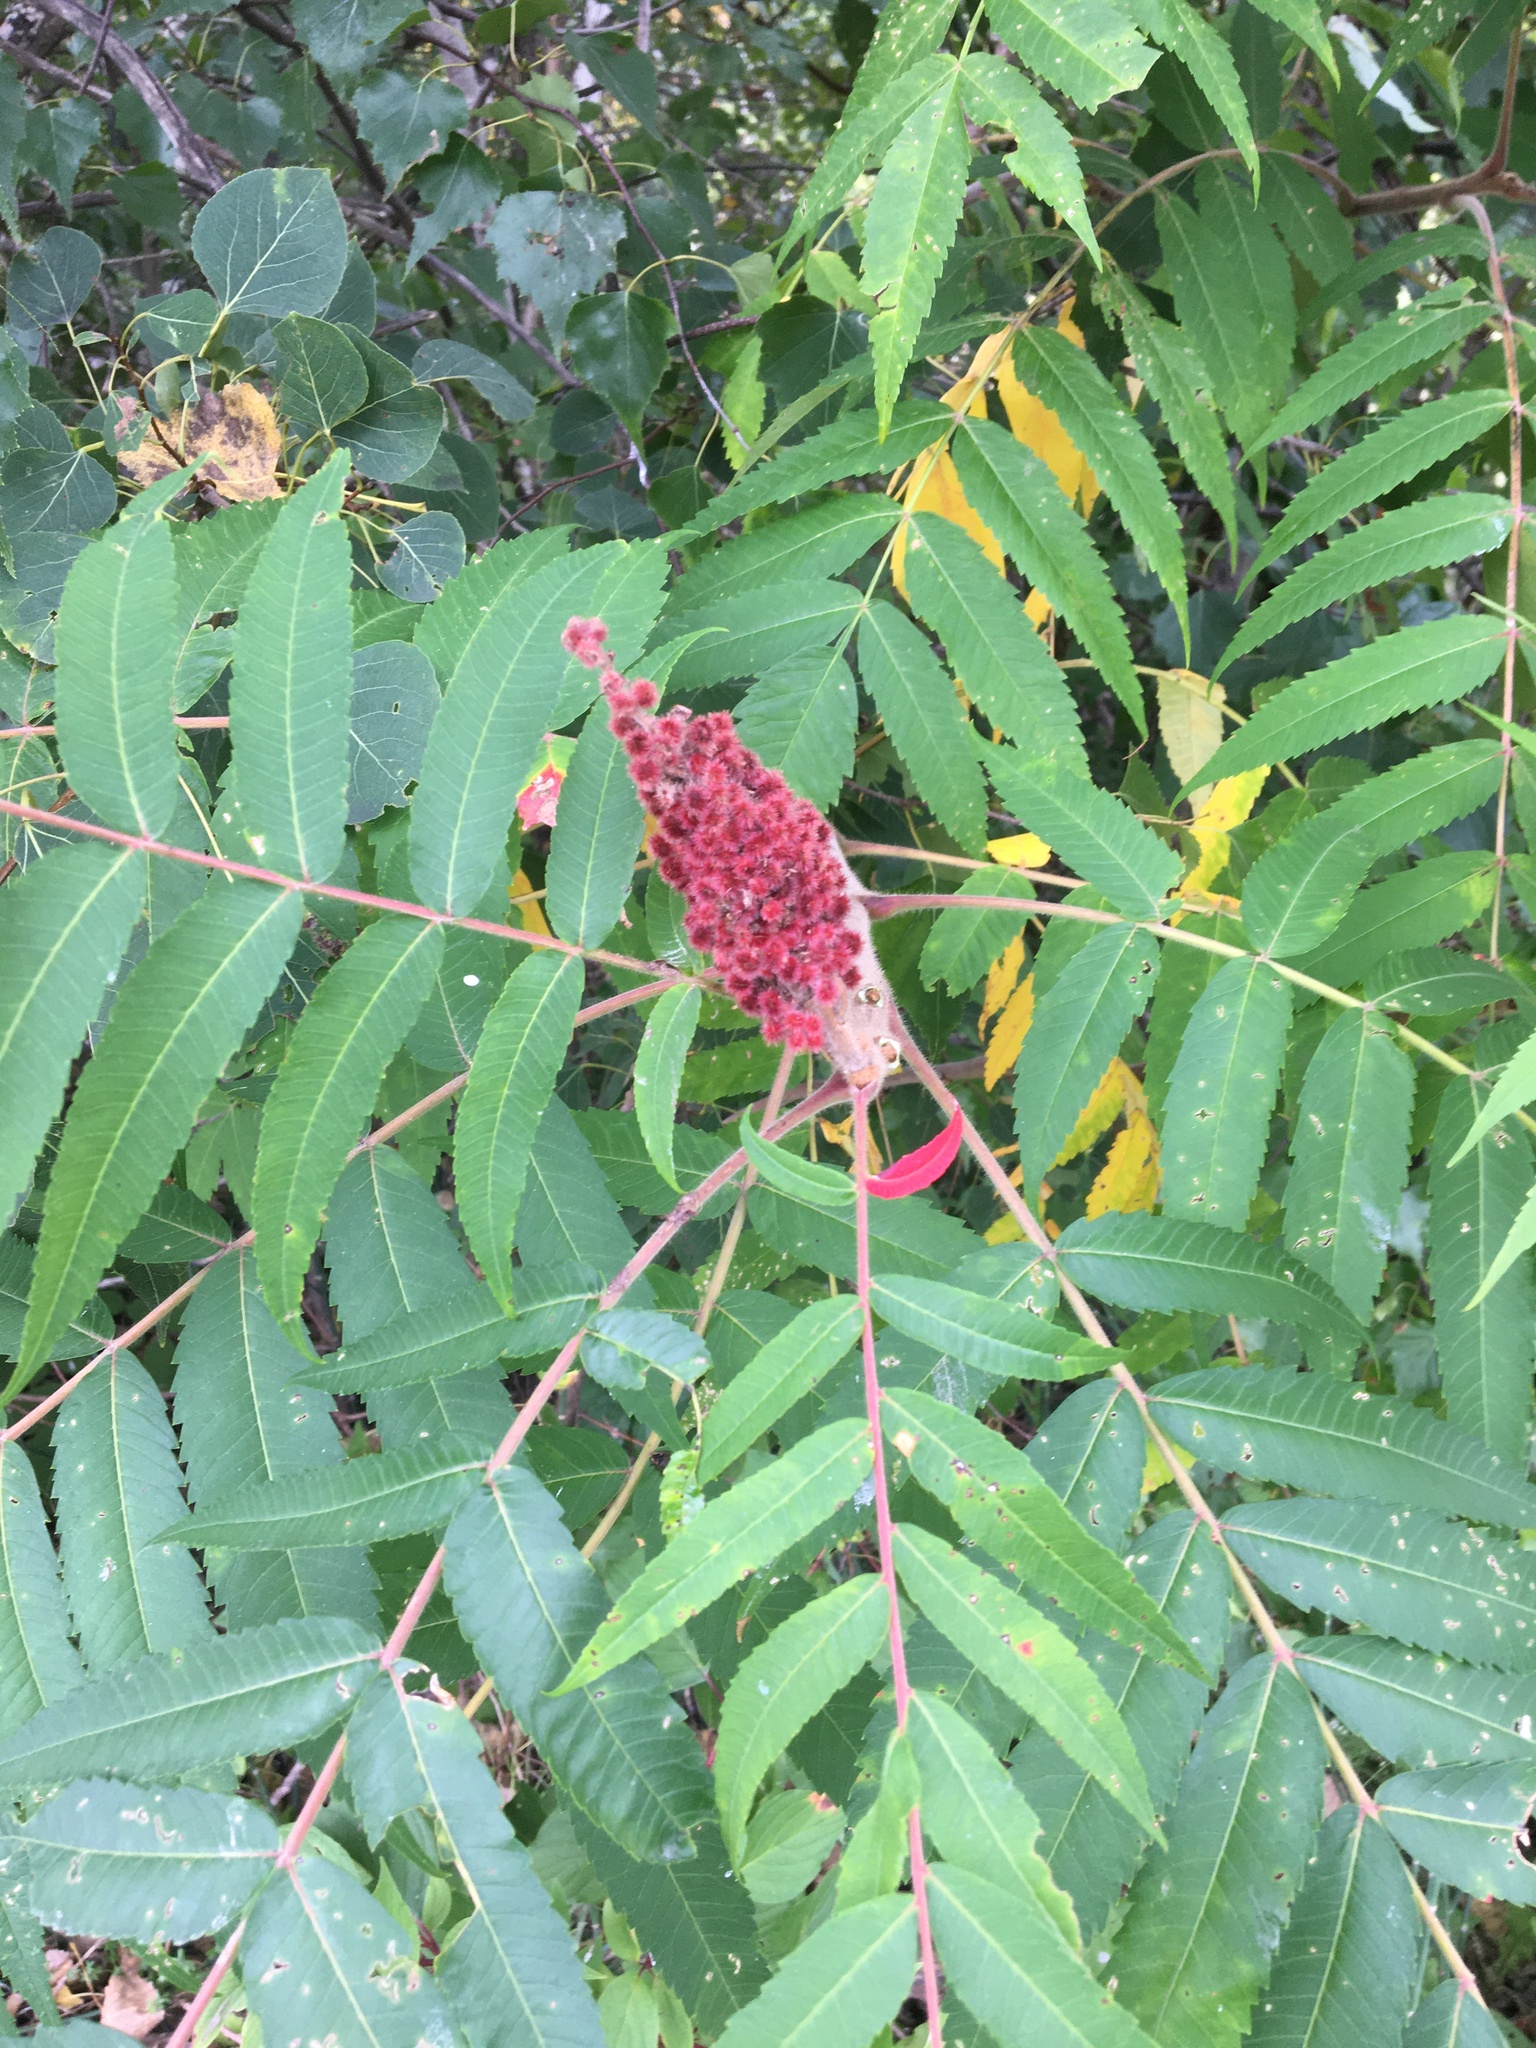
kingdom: Plantae
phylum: Tracheophyta
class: Magnoliopsida
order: Sapindales
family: Anacardiaceae
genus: Rhus
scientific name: Rhus typhina
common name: Staghorn sumac
